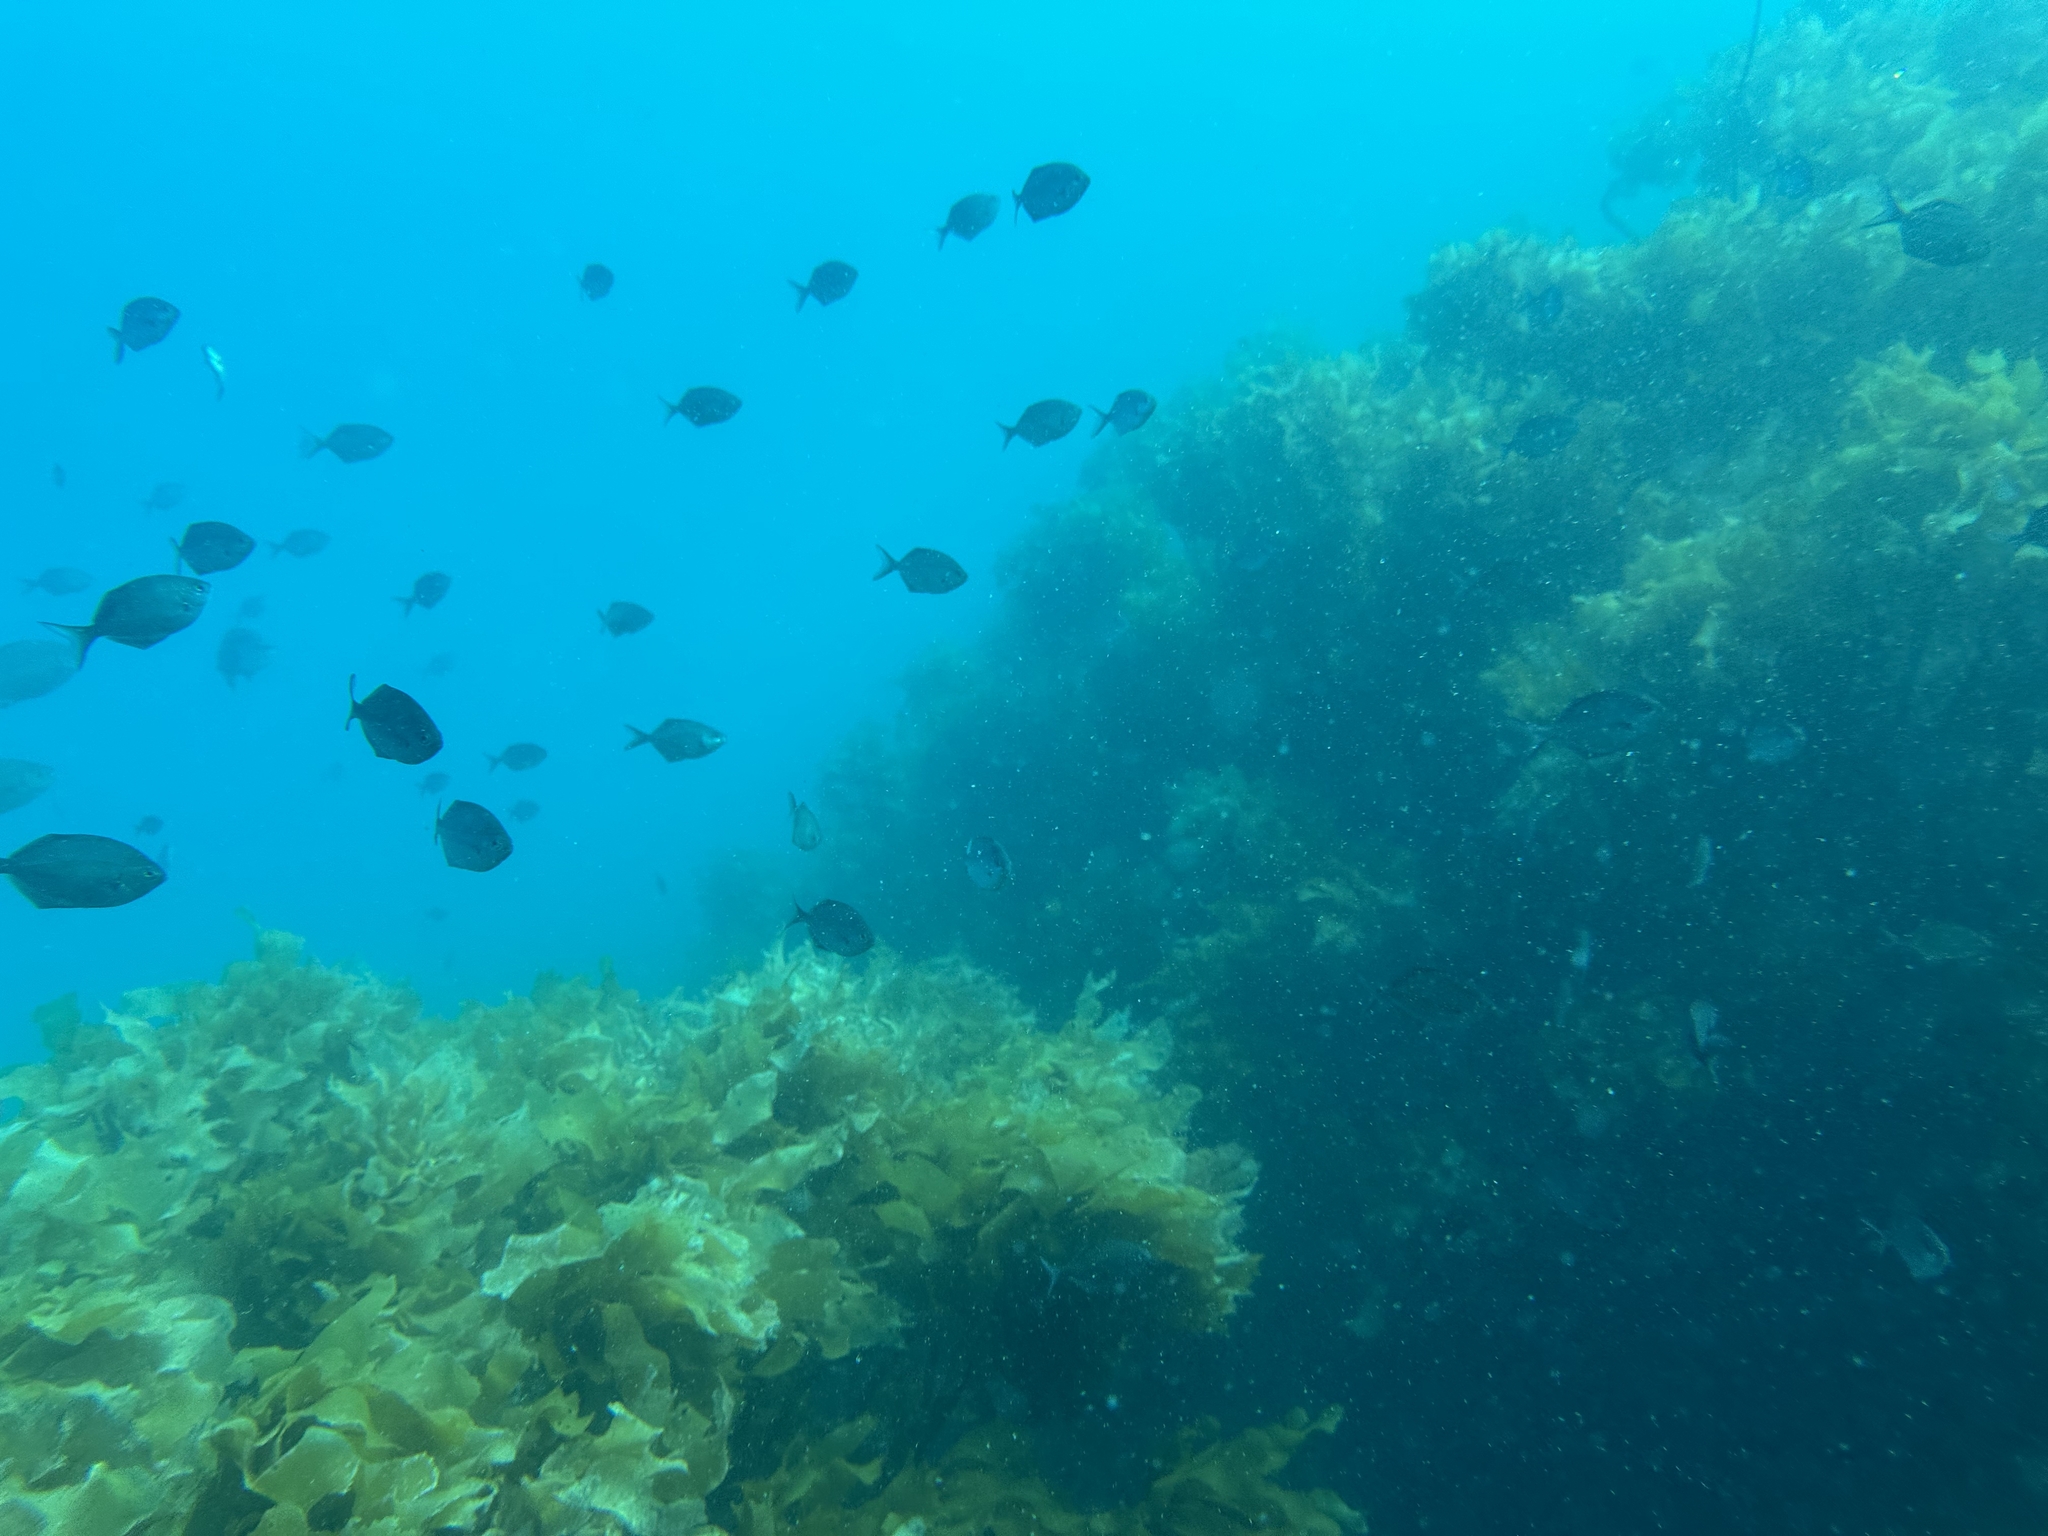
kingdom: Animalia
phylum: Chordata
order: Perciformes
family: Kyphosidae
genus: Scorpis
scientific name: Scorpis lineolata
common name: Sweep
